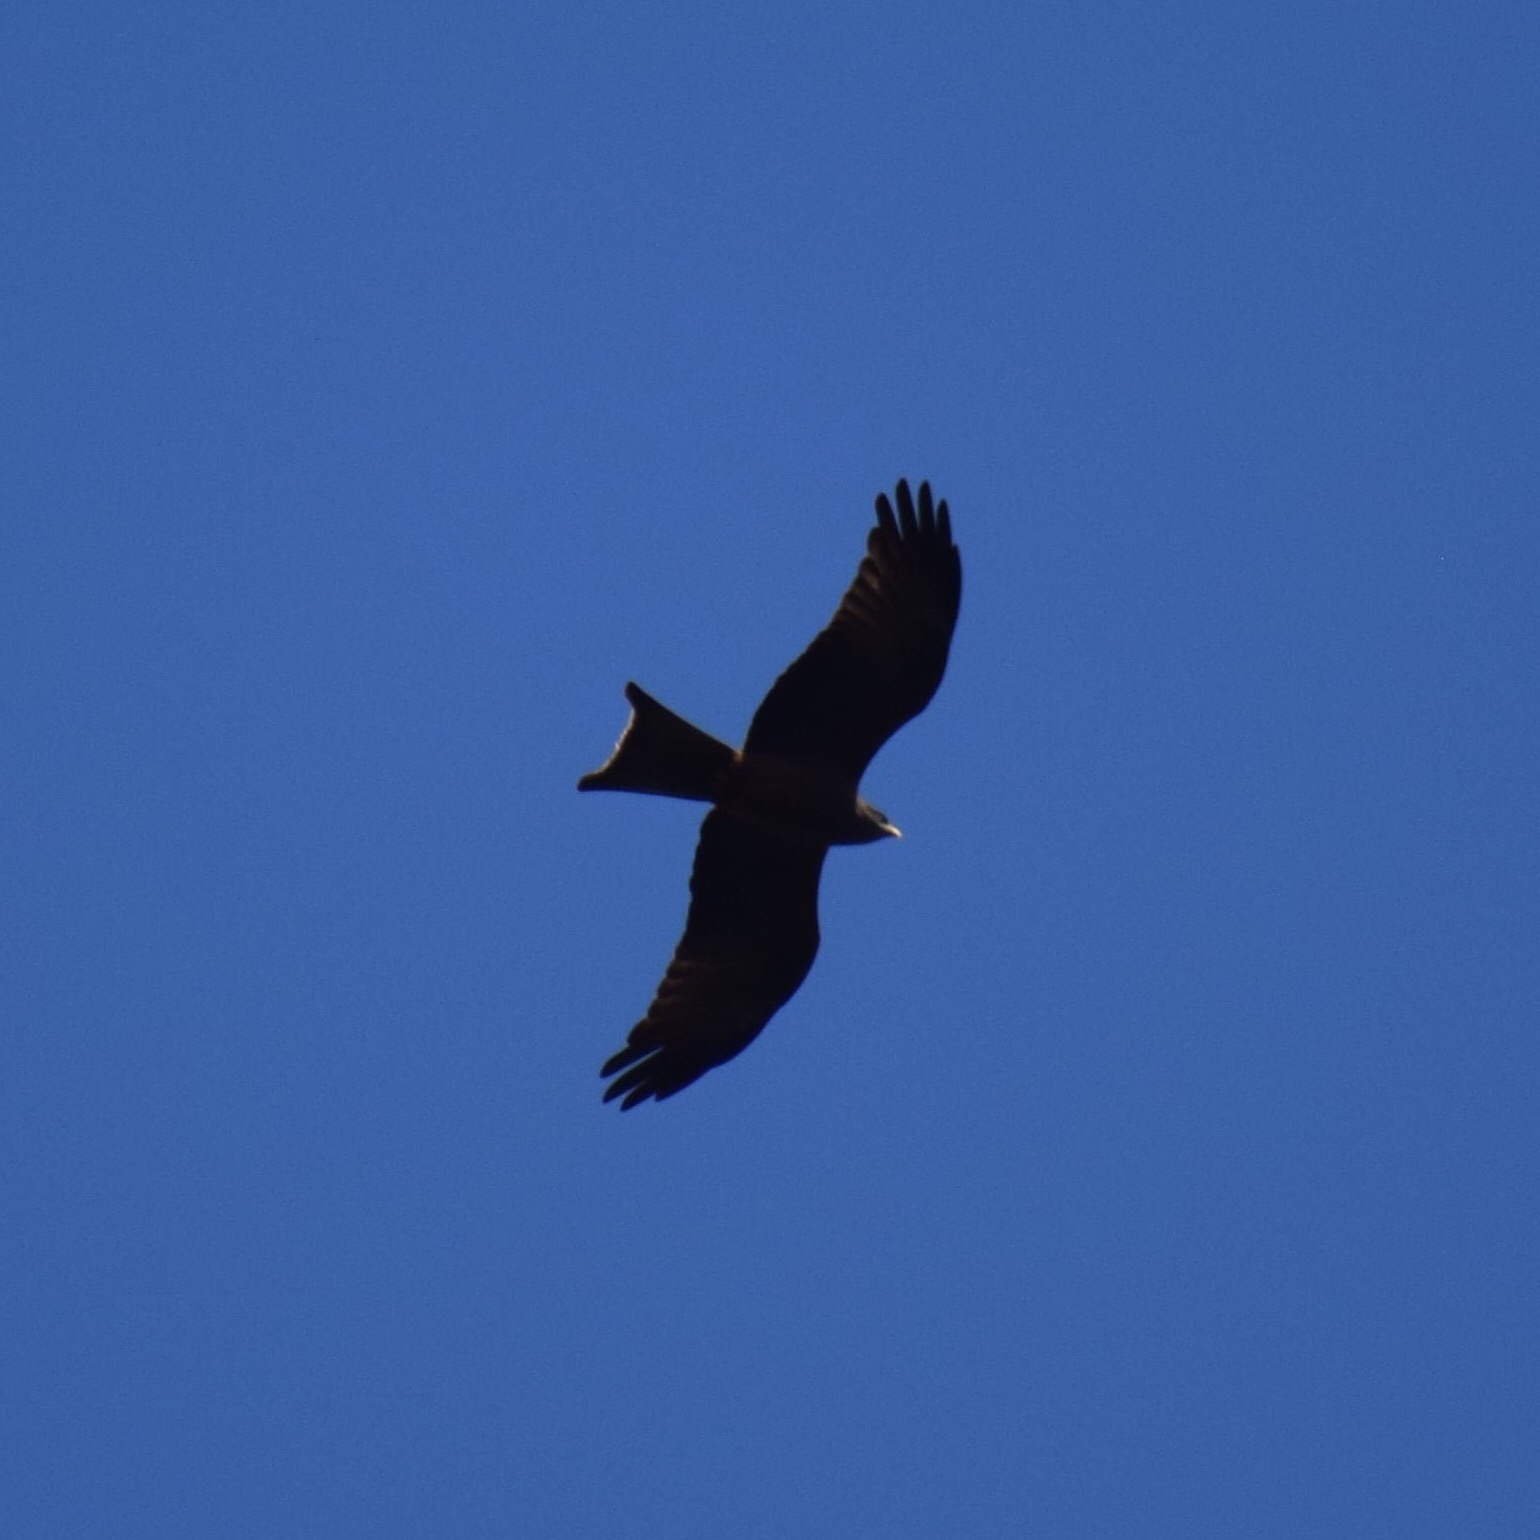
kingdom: Animalia
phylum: Chordata
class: Aves
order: Accipitriformes
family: Accipitridae
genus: Milvus
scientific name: Milvus migrans
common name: Black kite
